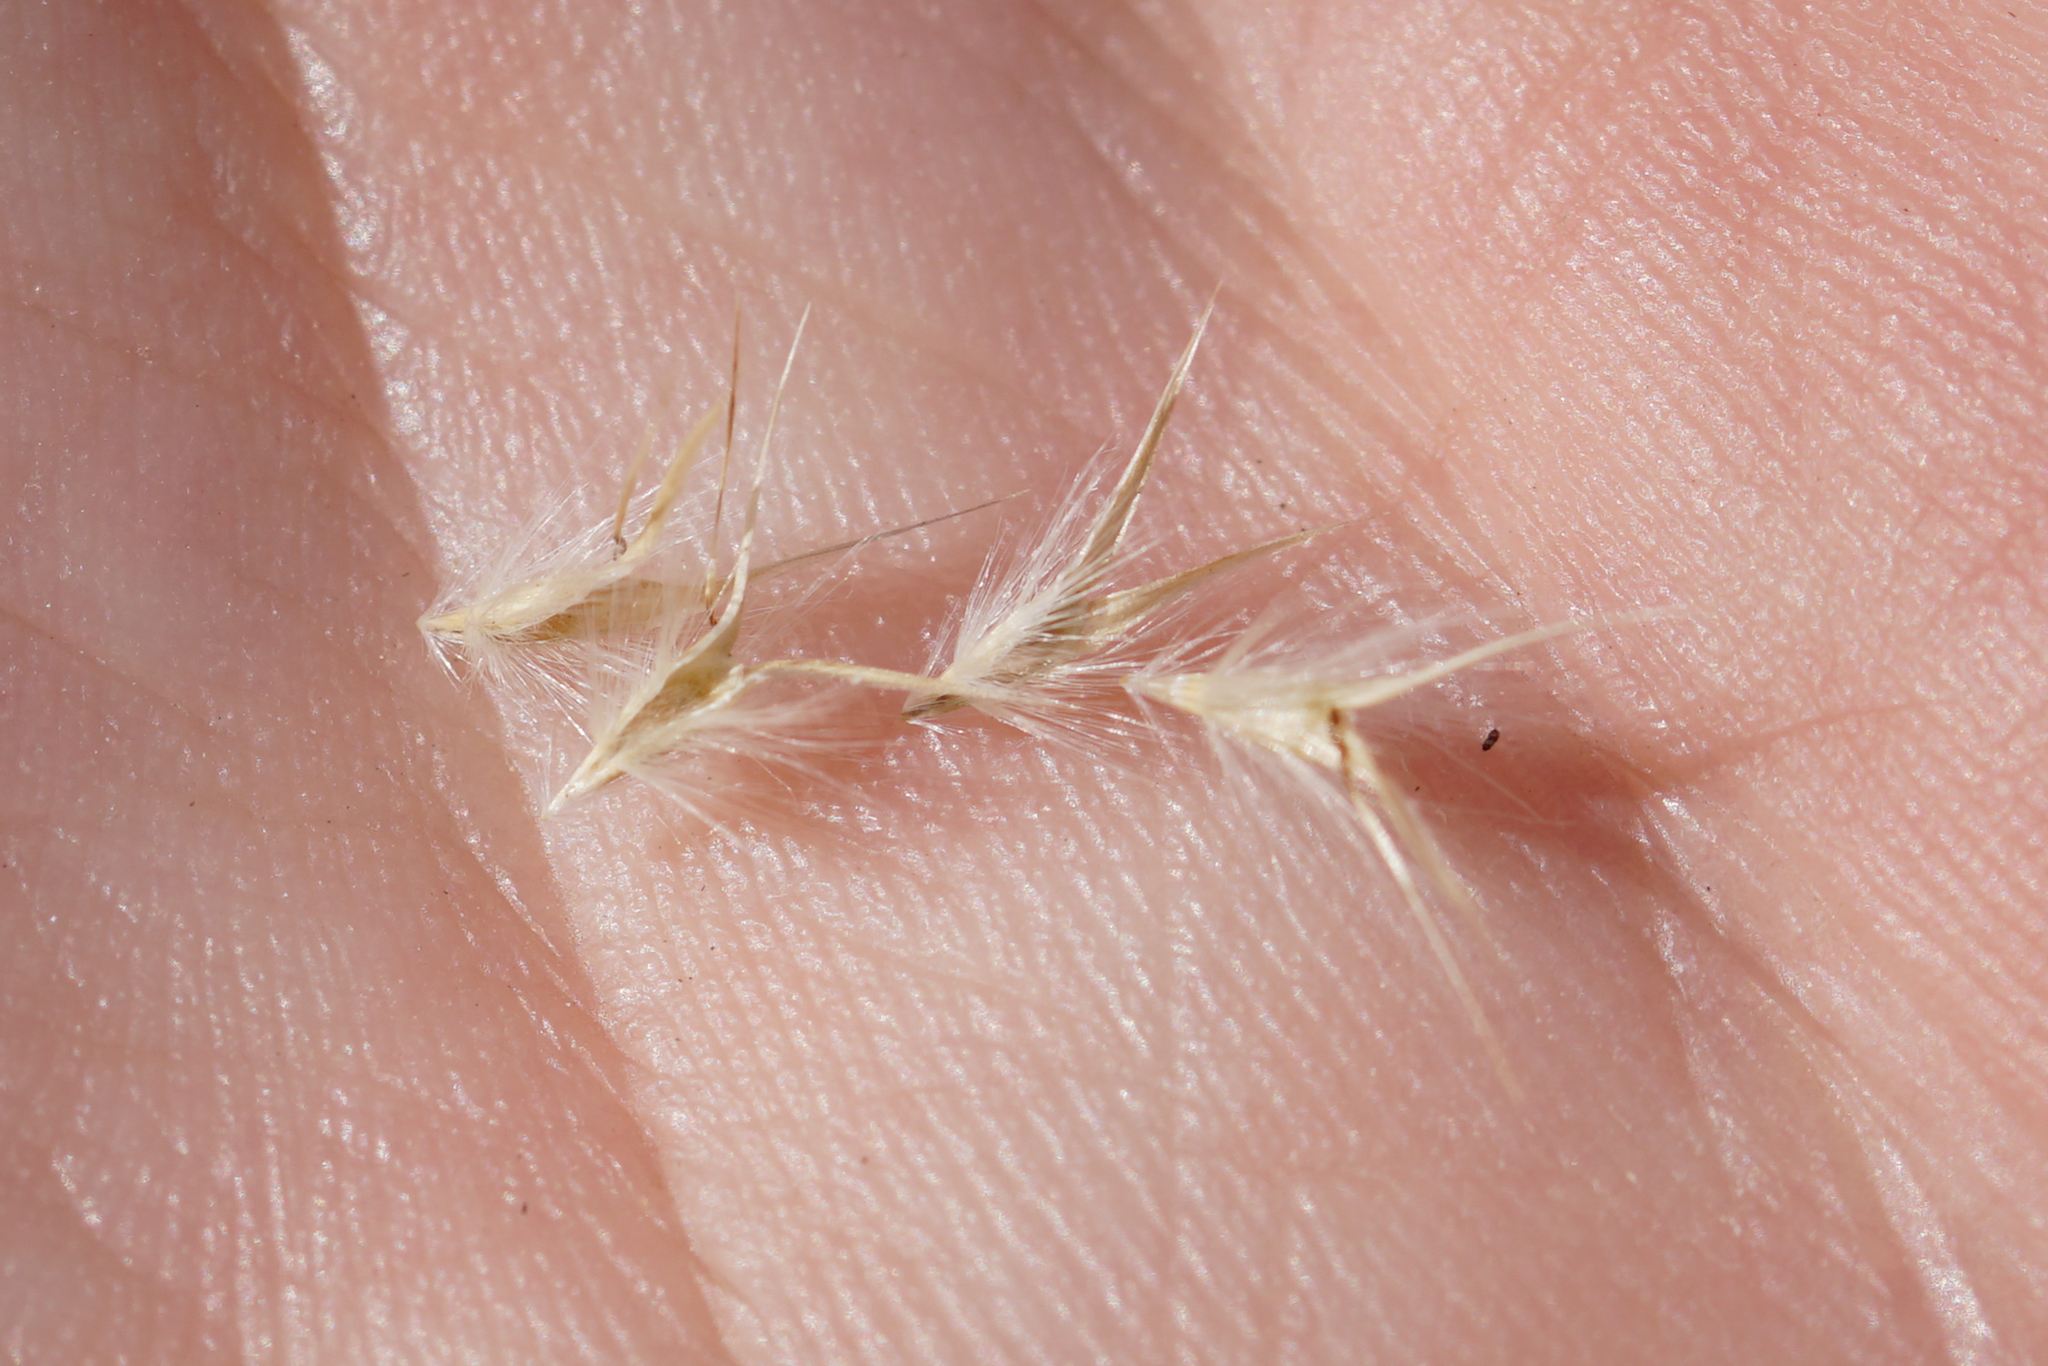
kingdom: Plantae
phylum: Tracheophyta
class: Liliopsida
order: Poales
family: Poaceae
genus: Rytidosperma
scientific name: Rytidosperma geniculatum
